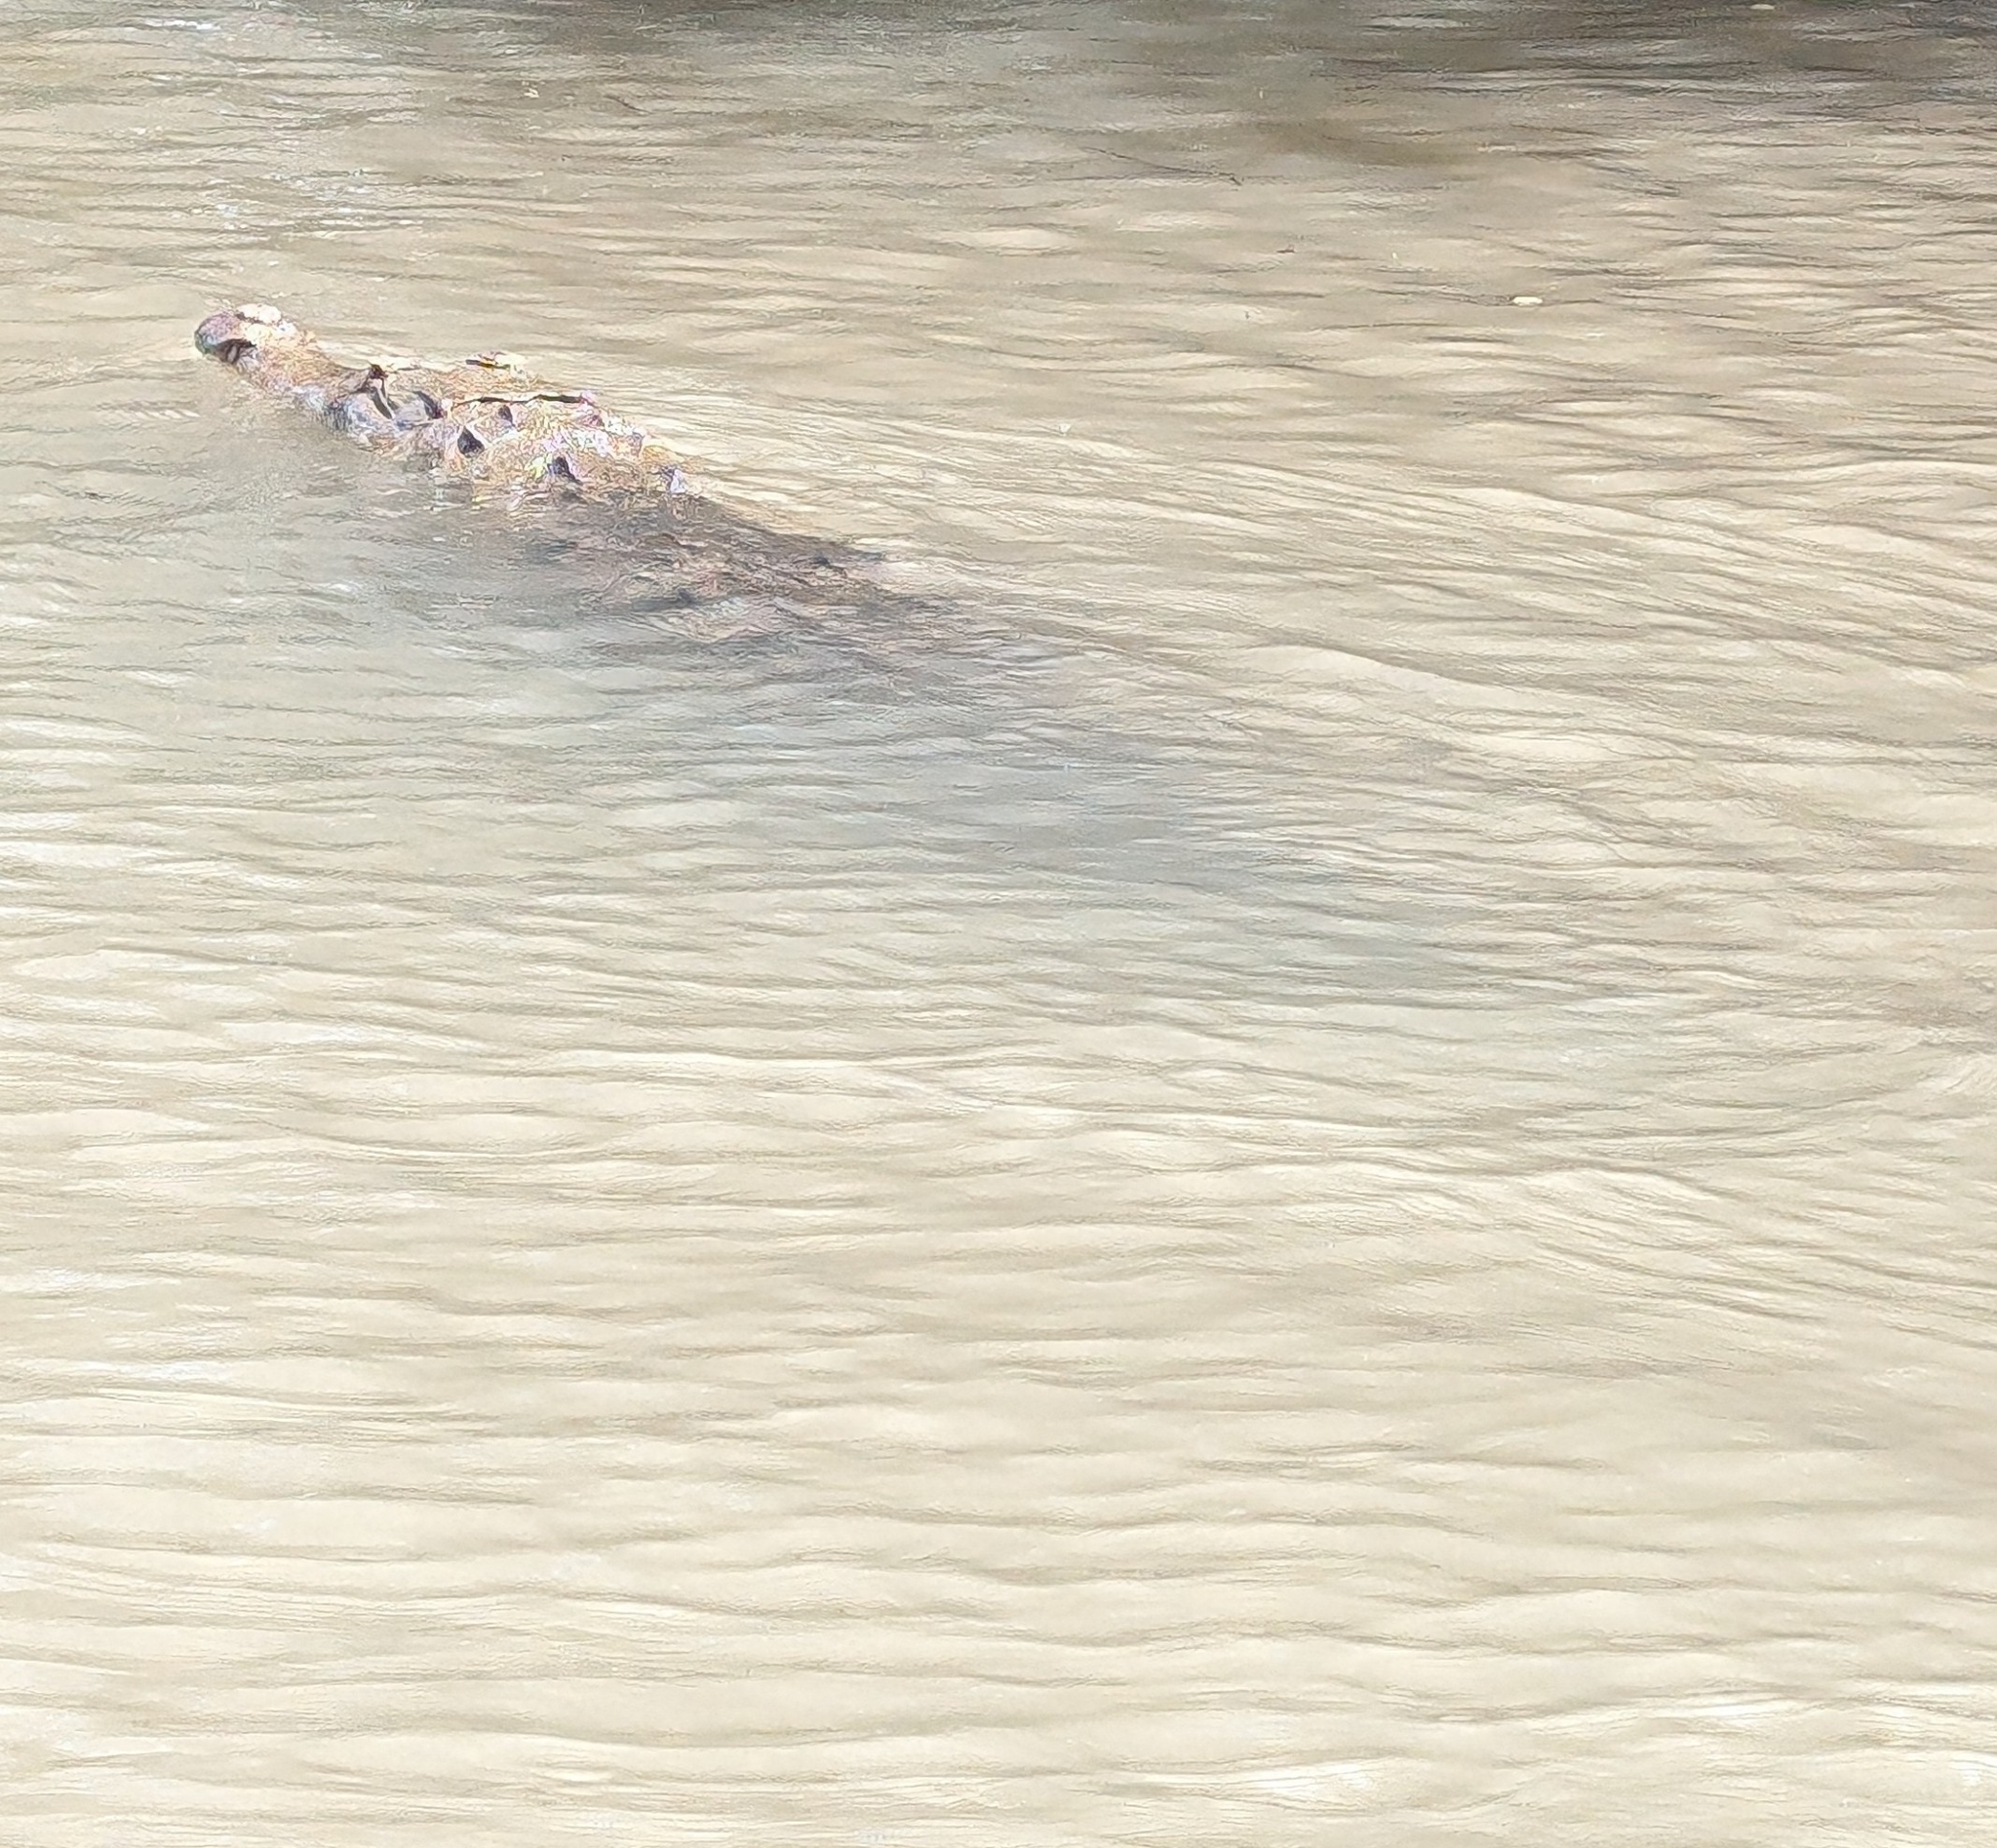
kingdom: Animalia
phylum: Chordata
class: Crocodylia
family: Crocodylidae
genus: Crocodylus
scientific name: Crocodylus acutus
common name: American crocodile
